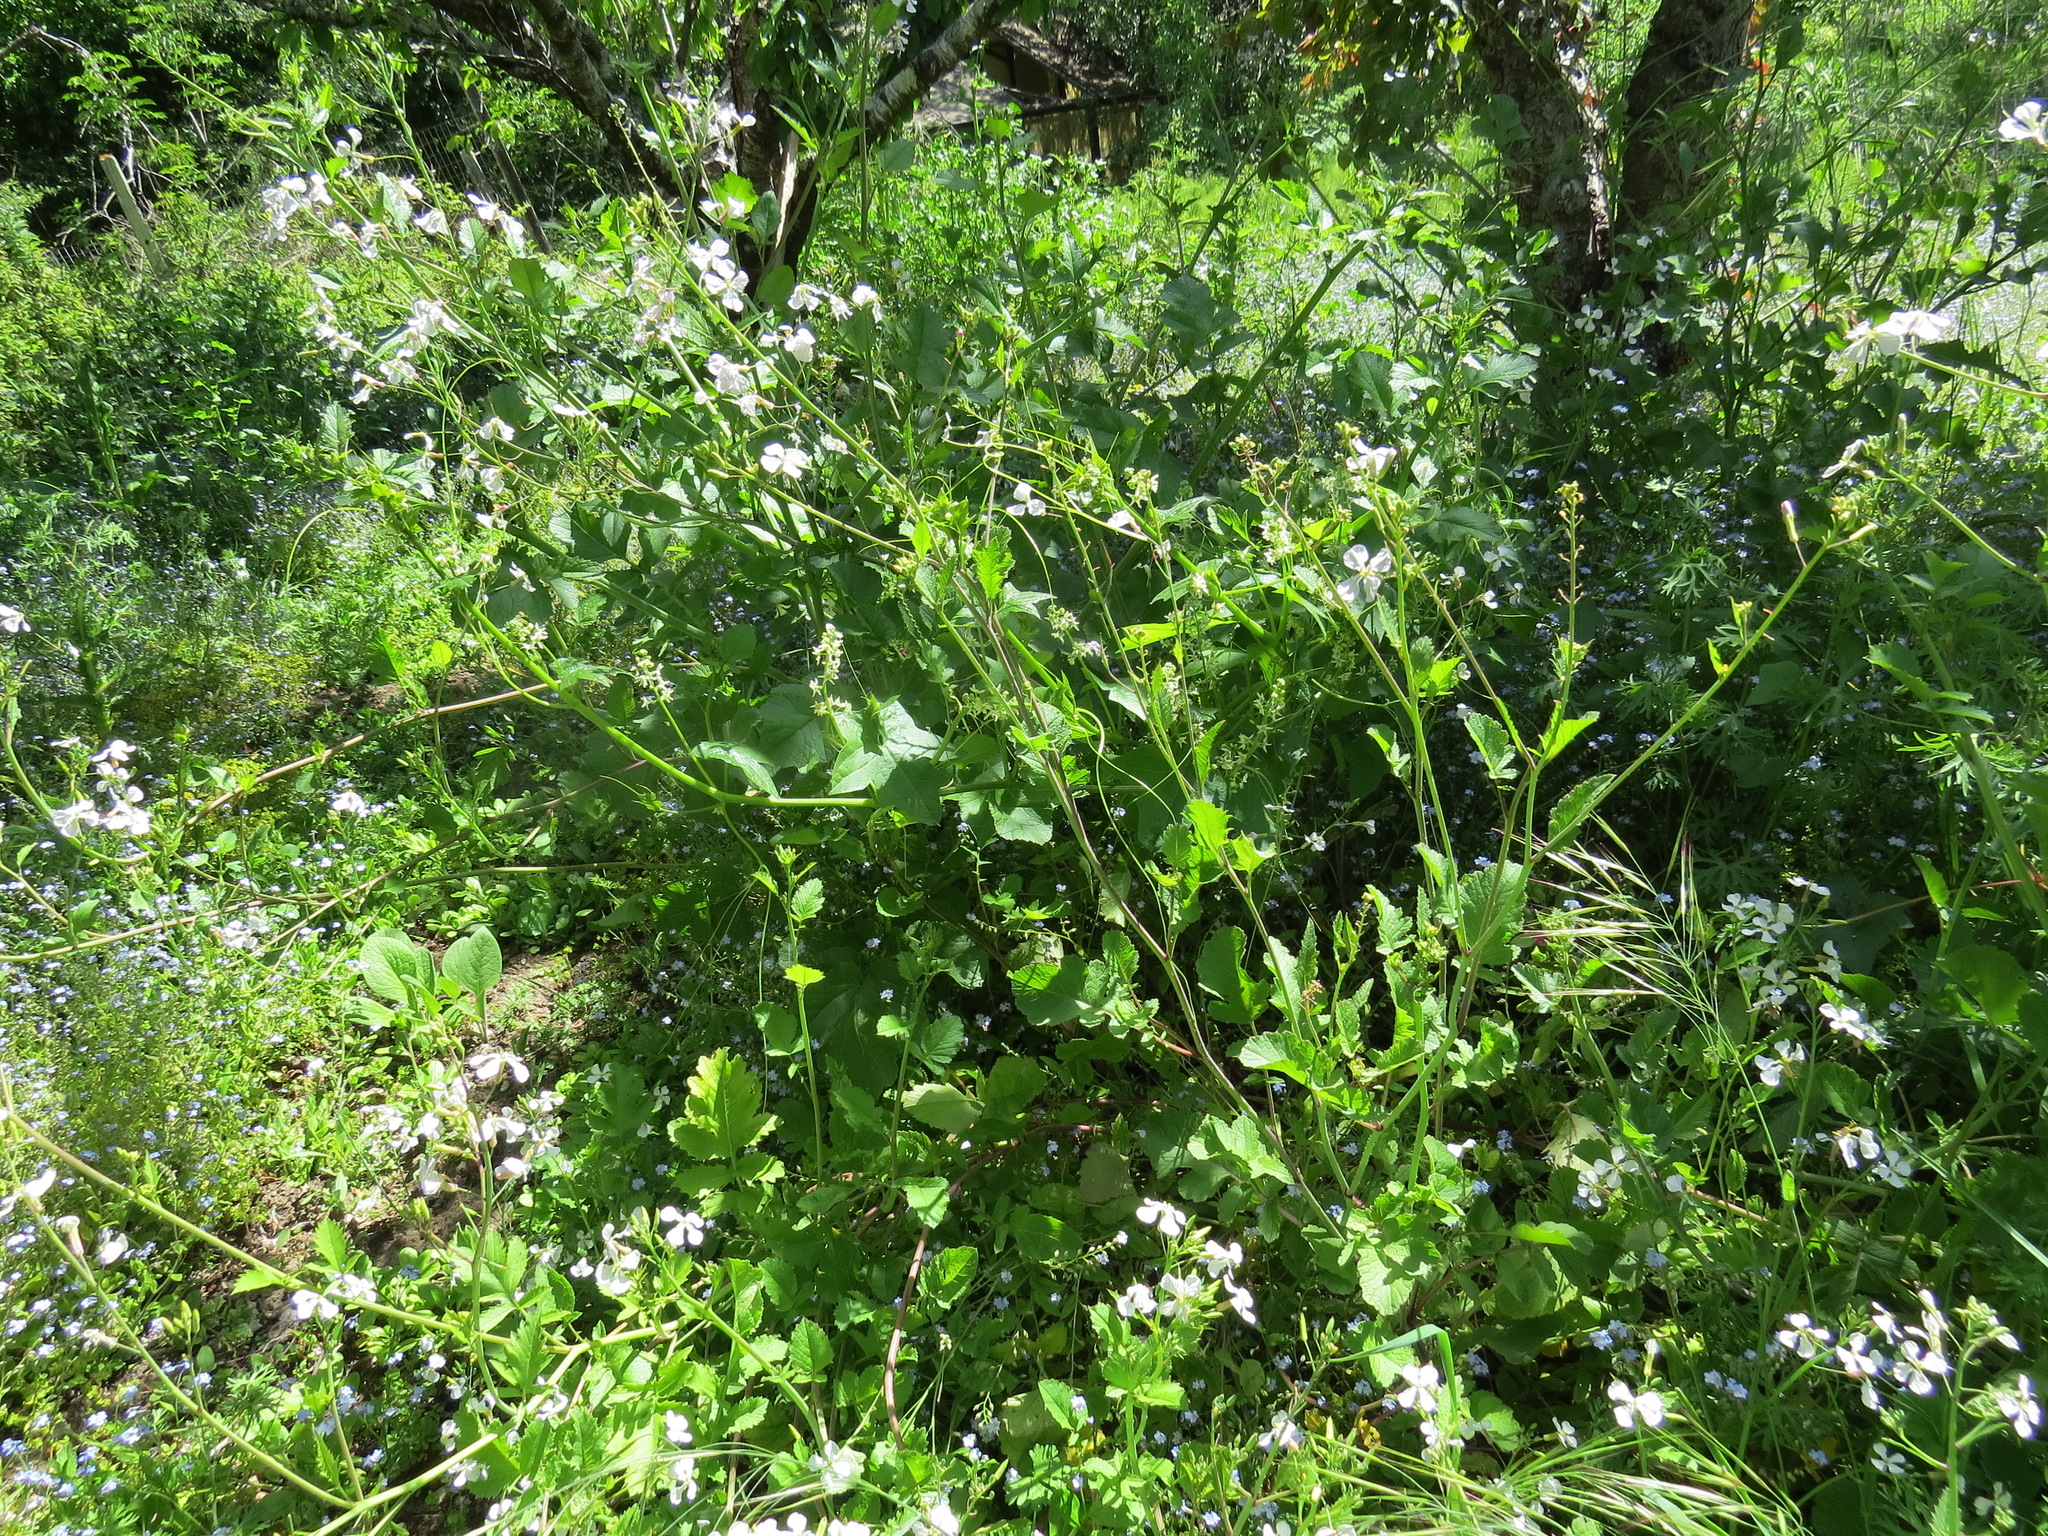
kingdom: Plantae
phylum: Tracheophyta
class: Magnoliopsida
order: Brassicales
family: Brassicaceae
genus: Raphanus
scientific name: Raphanus sativus
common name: Cultivated radish
